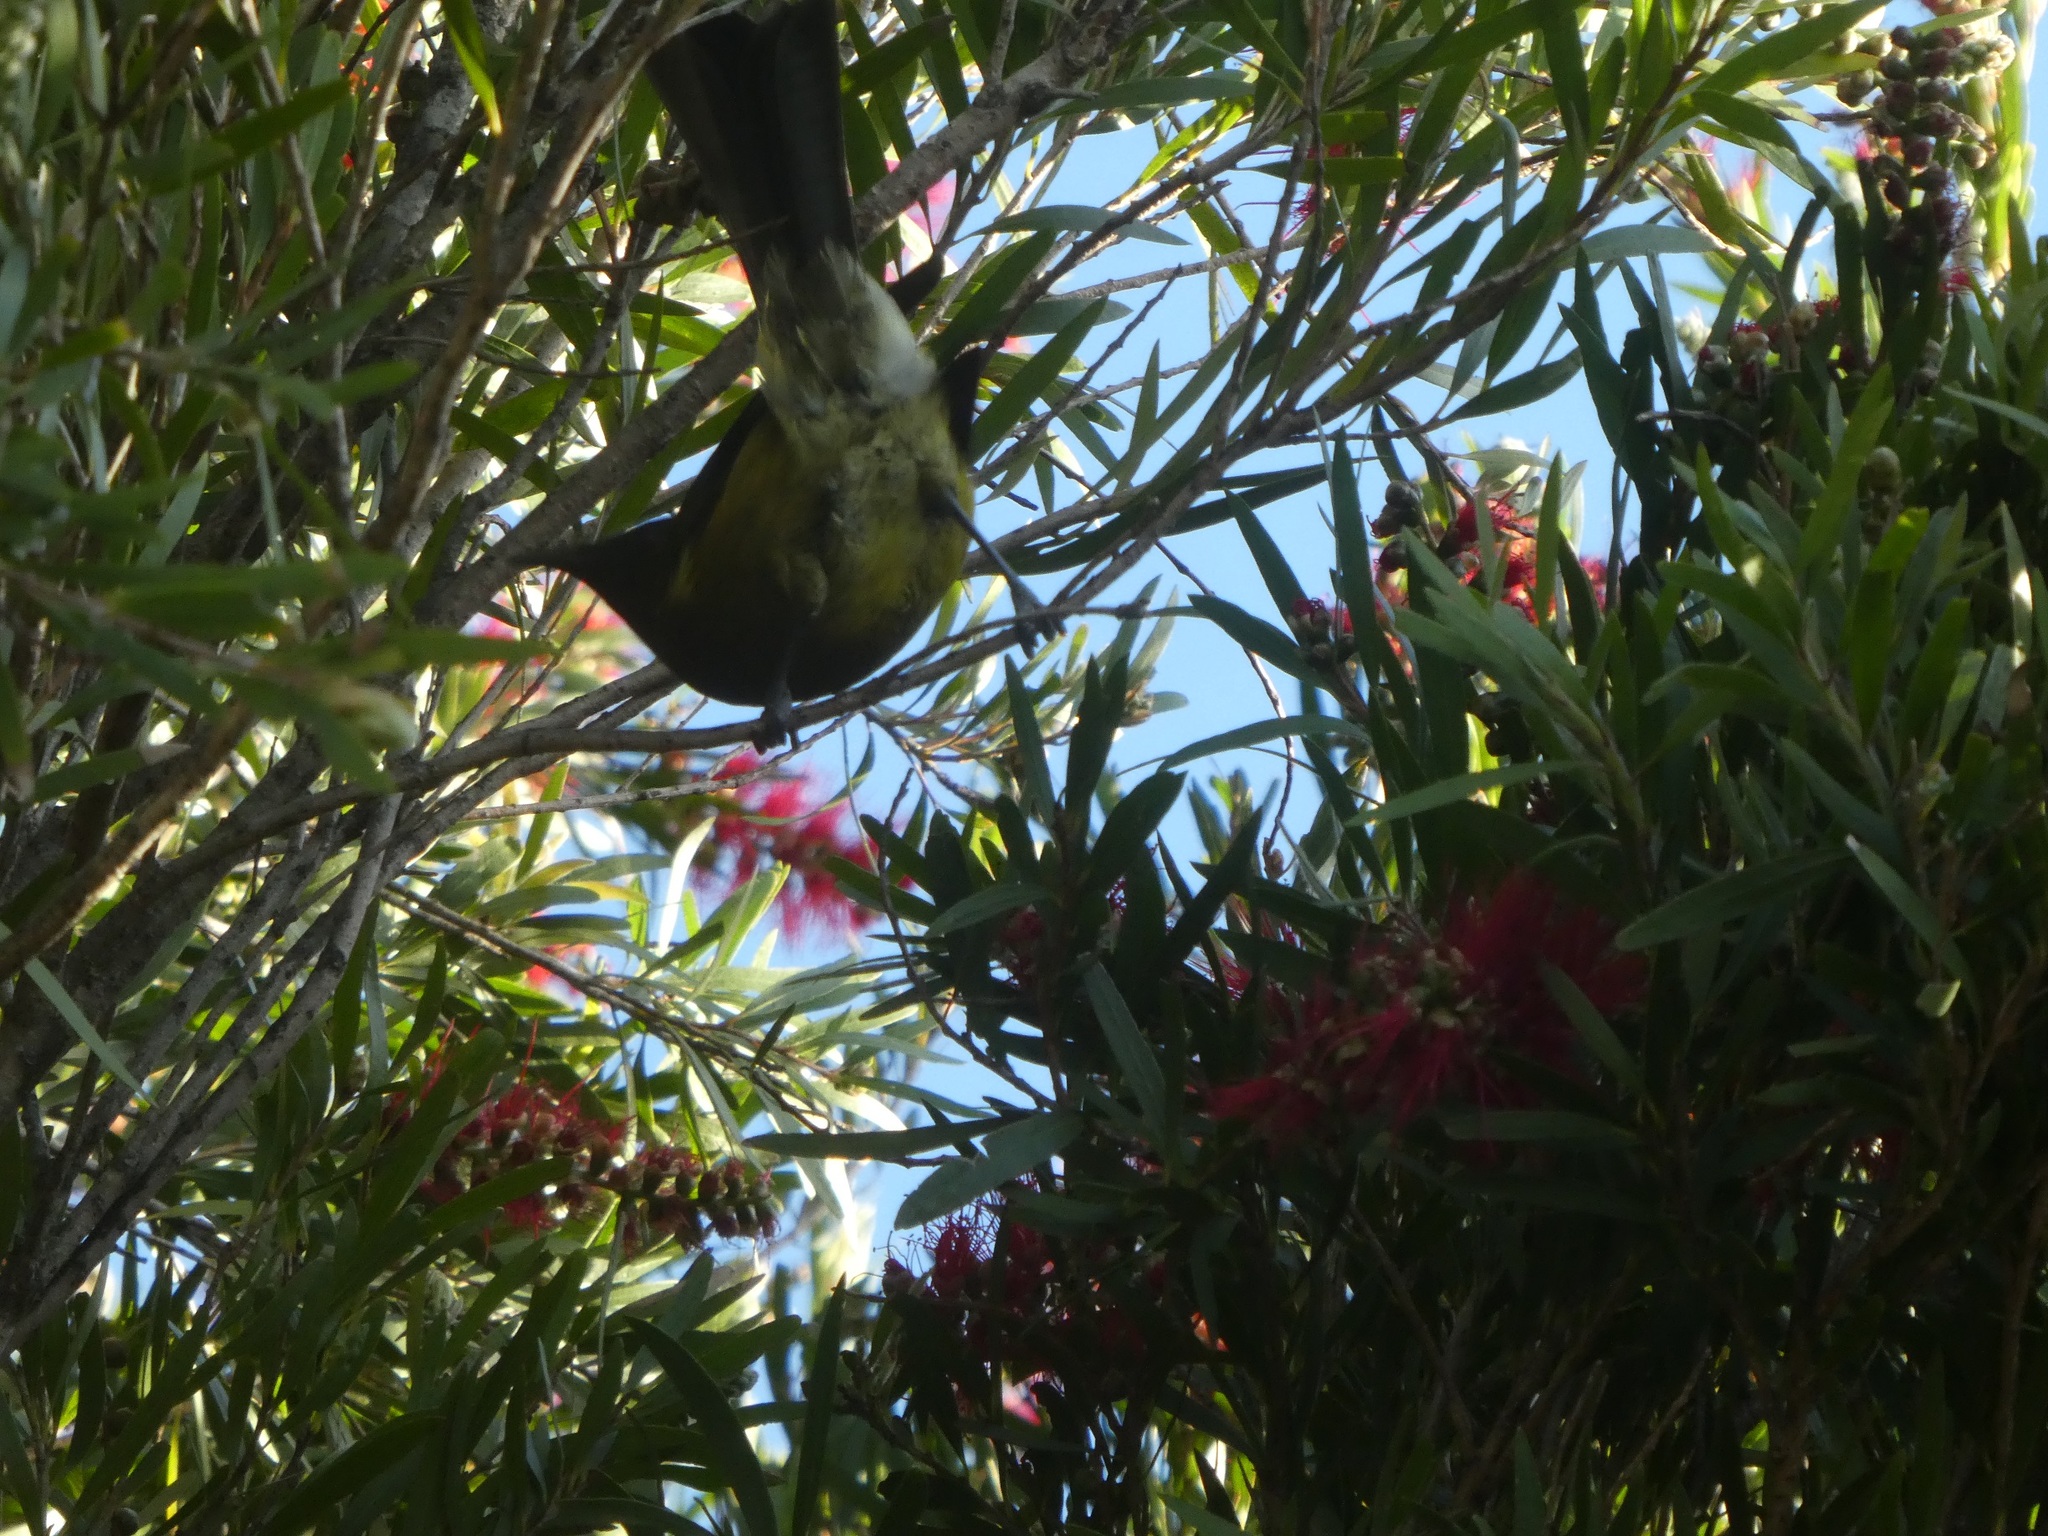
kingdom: Animalia
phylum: Chordata
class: Aves
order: Passeriformes
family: Meliphagidae
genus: Anthornis
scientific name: Anthornis melanura
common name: New zealand bellbird
